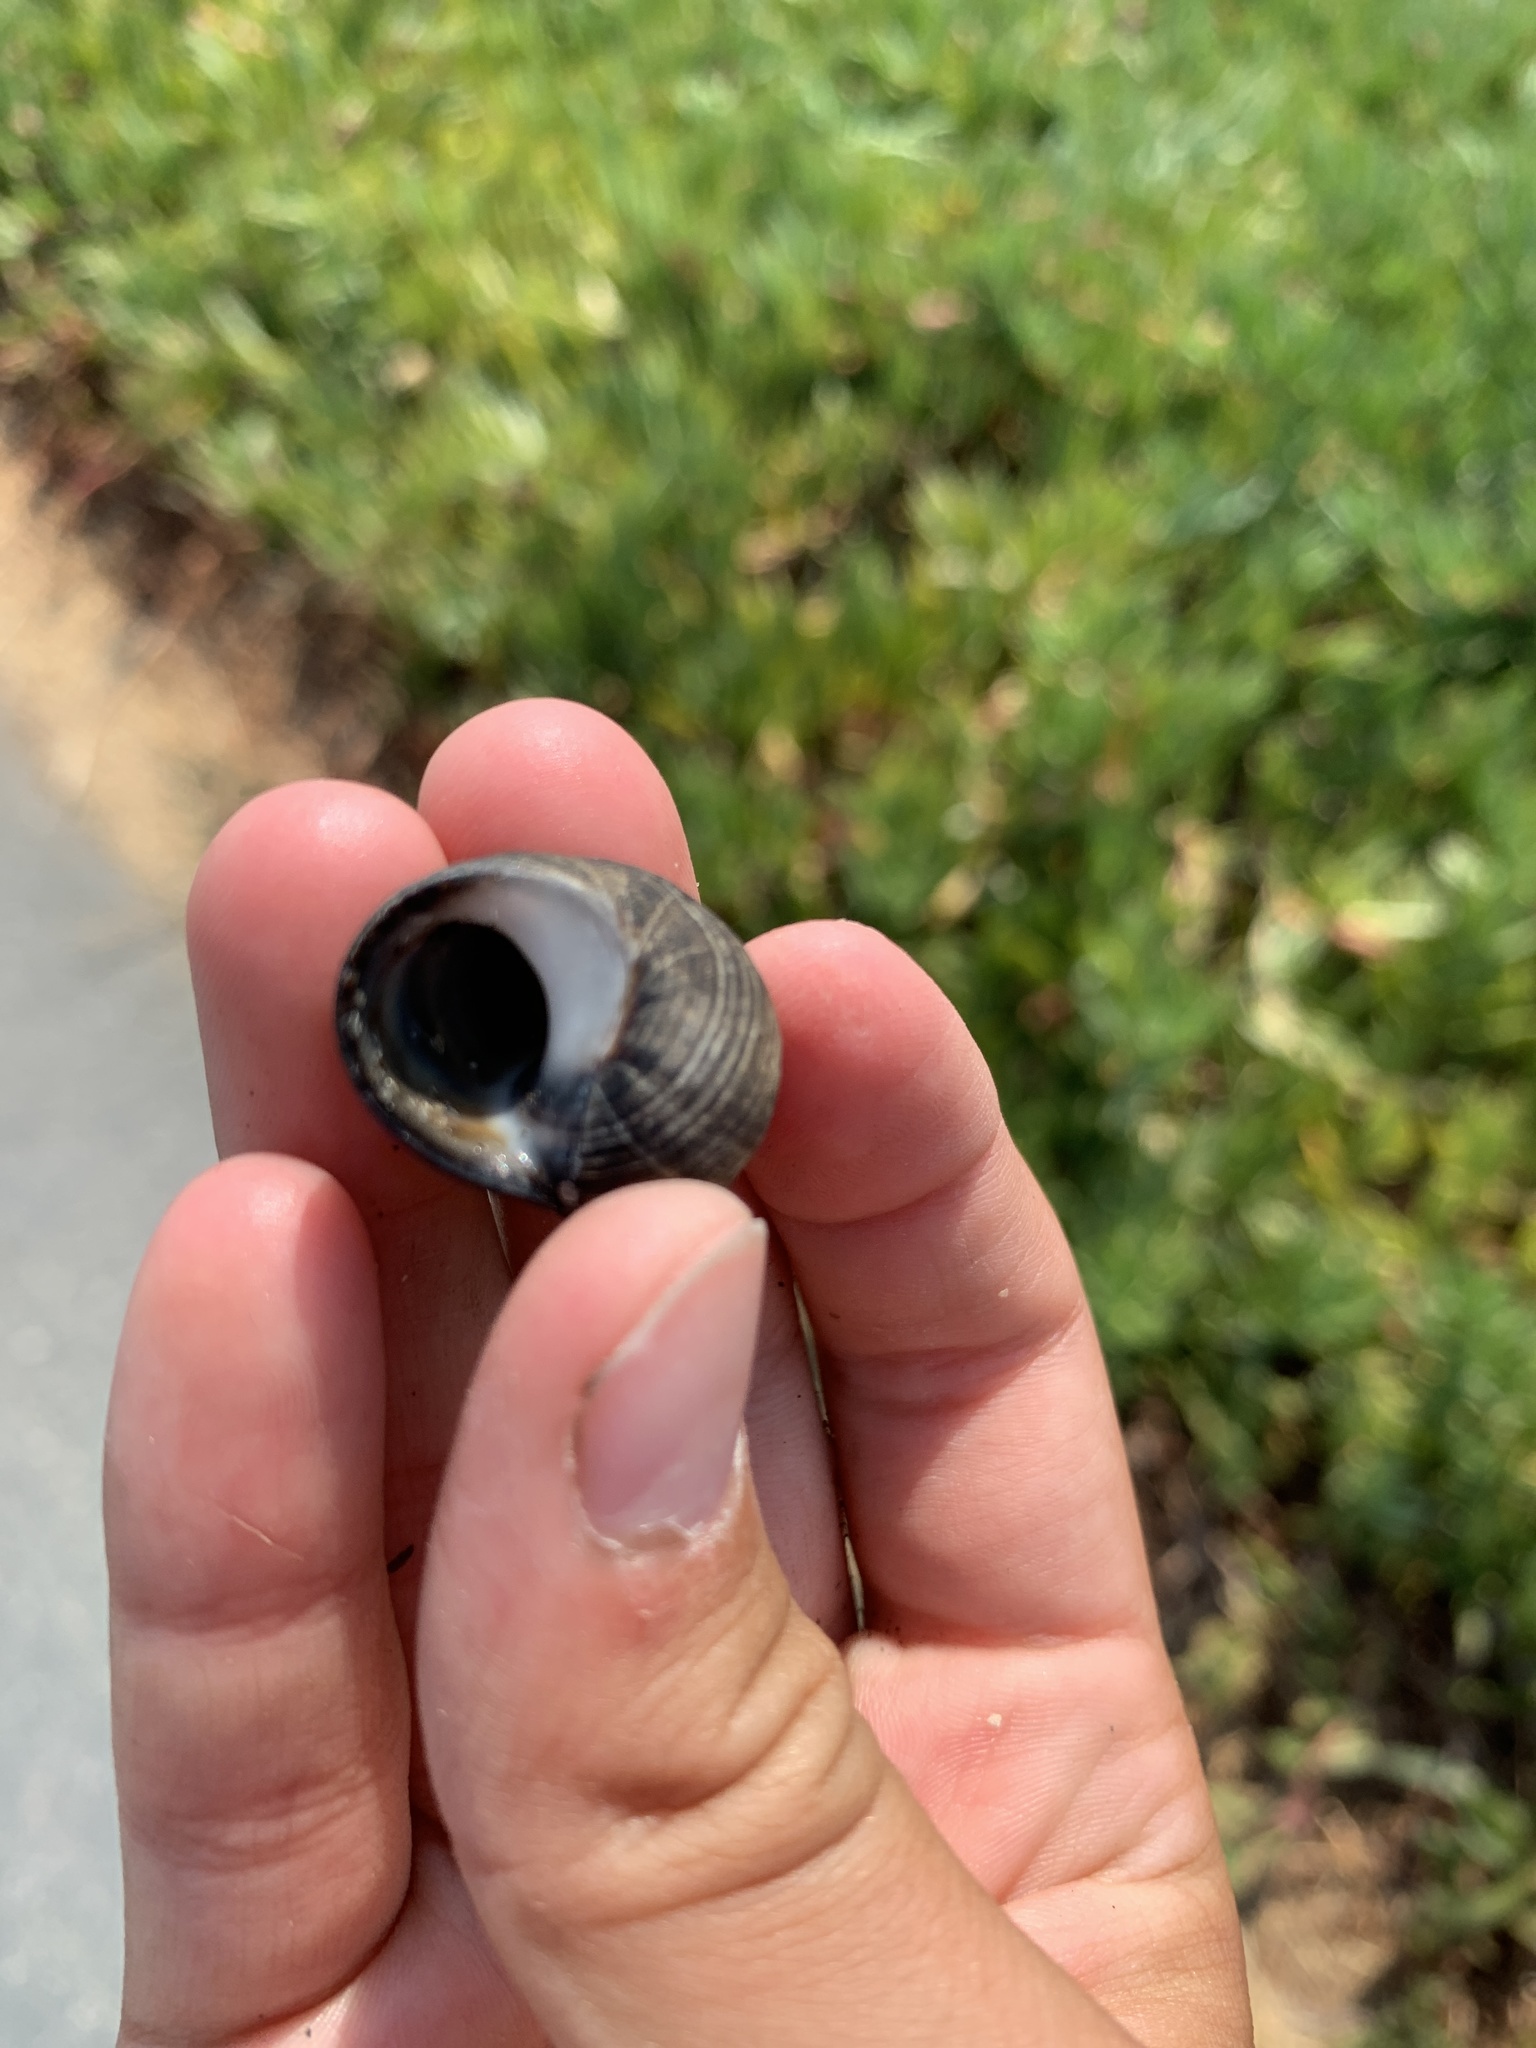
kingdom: Animalia
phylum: Mollusca
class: Gastropoda
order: Littorinimorpha
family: Littorinidae
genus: Littorina
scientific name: Littorina littorea
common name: Common periwinkle
